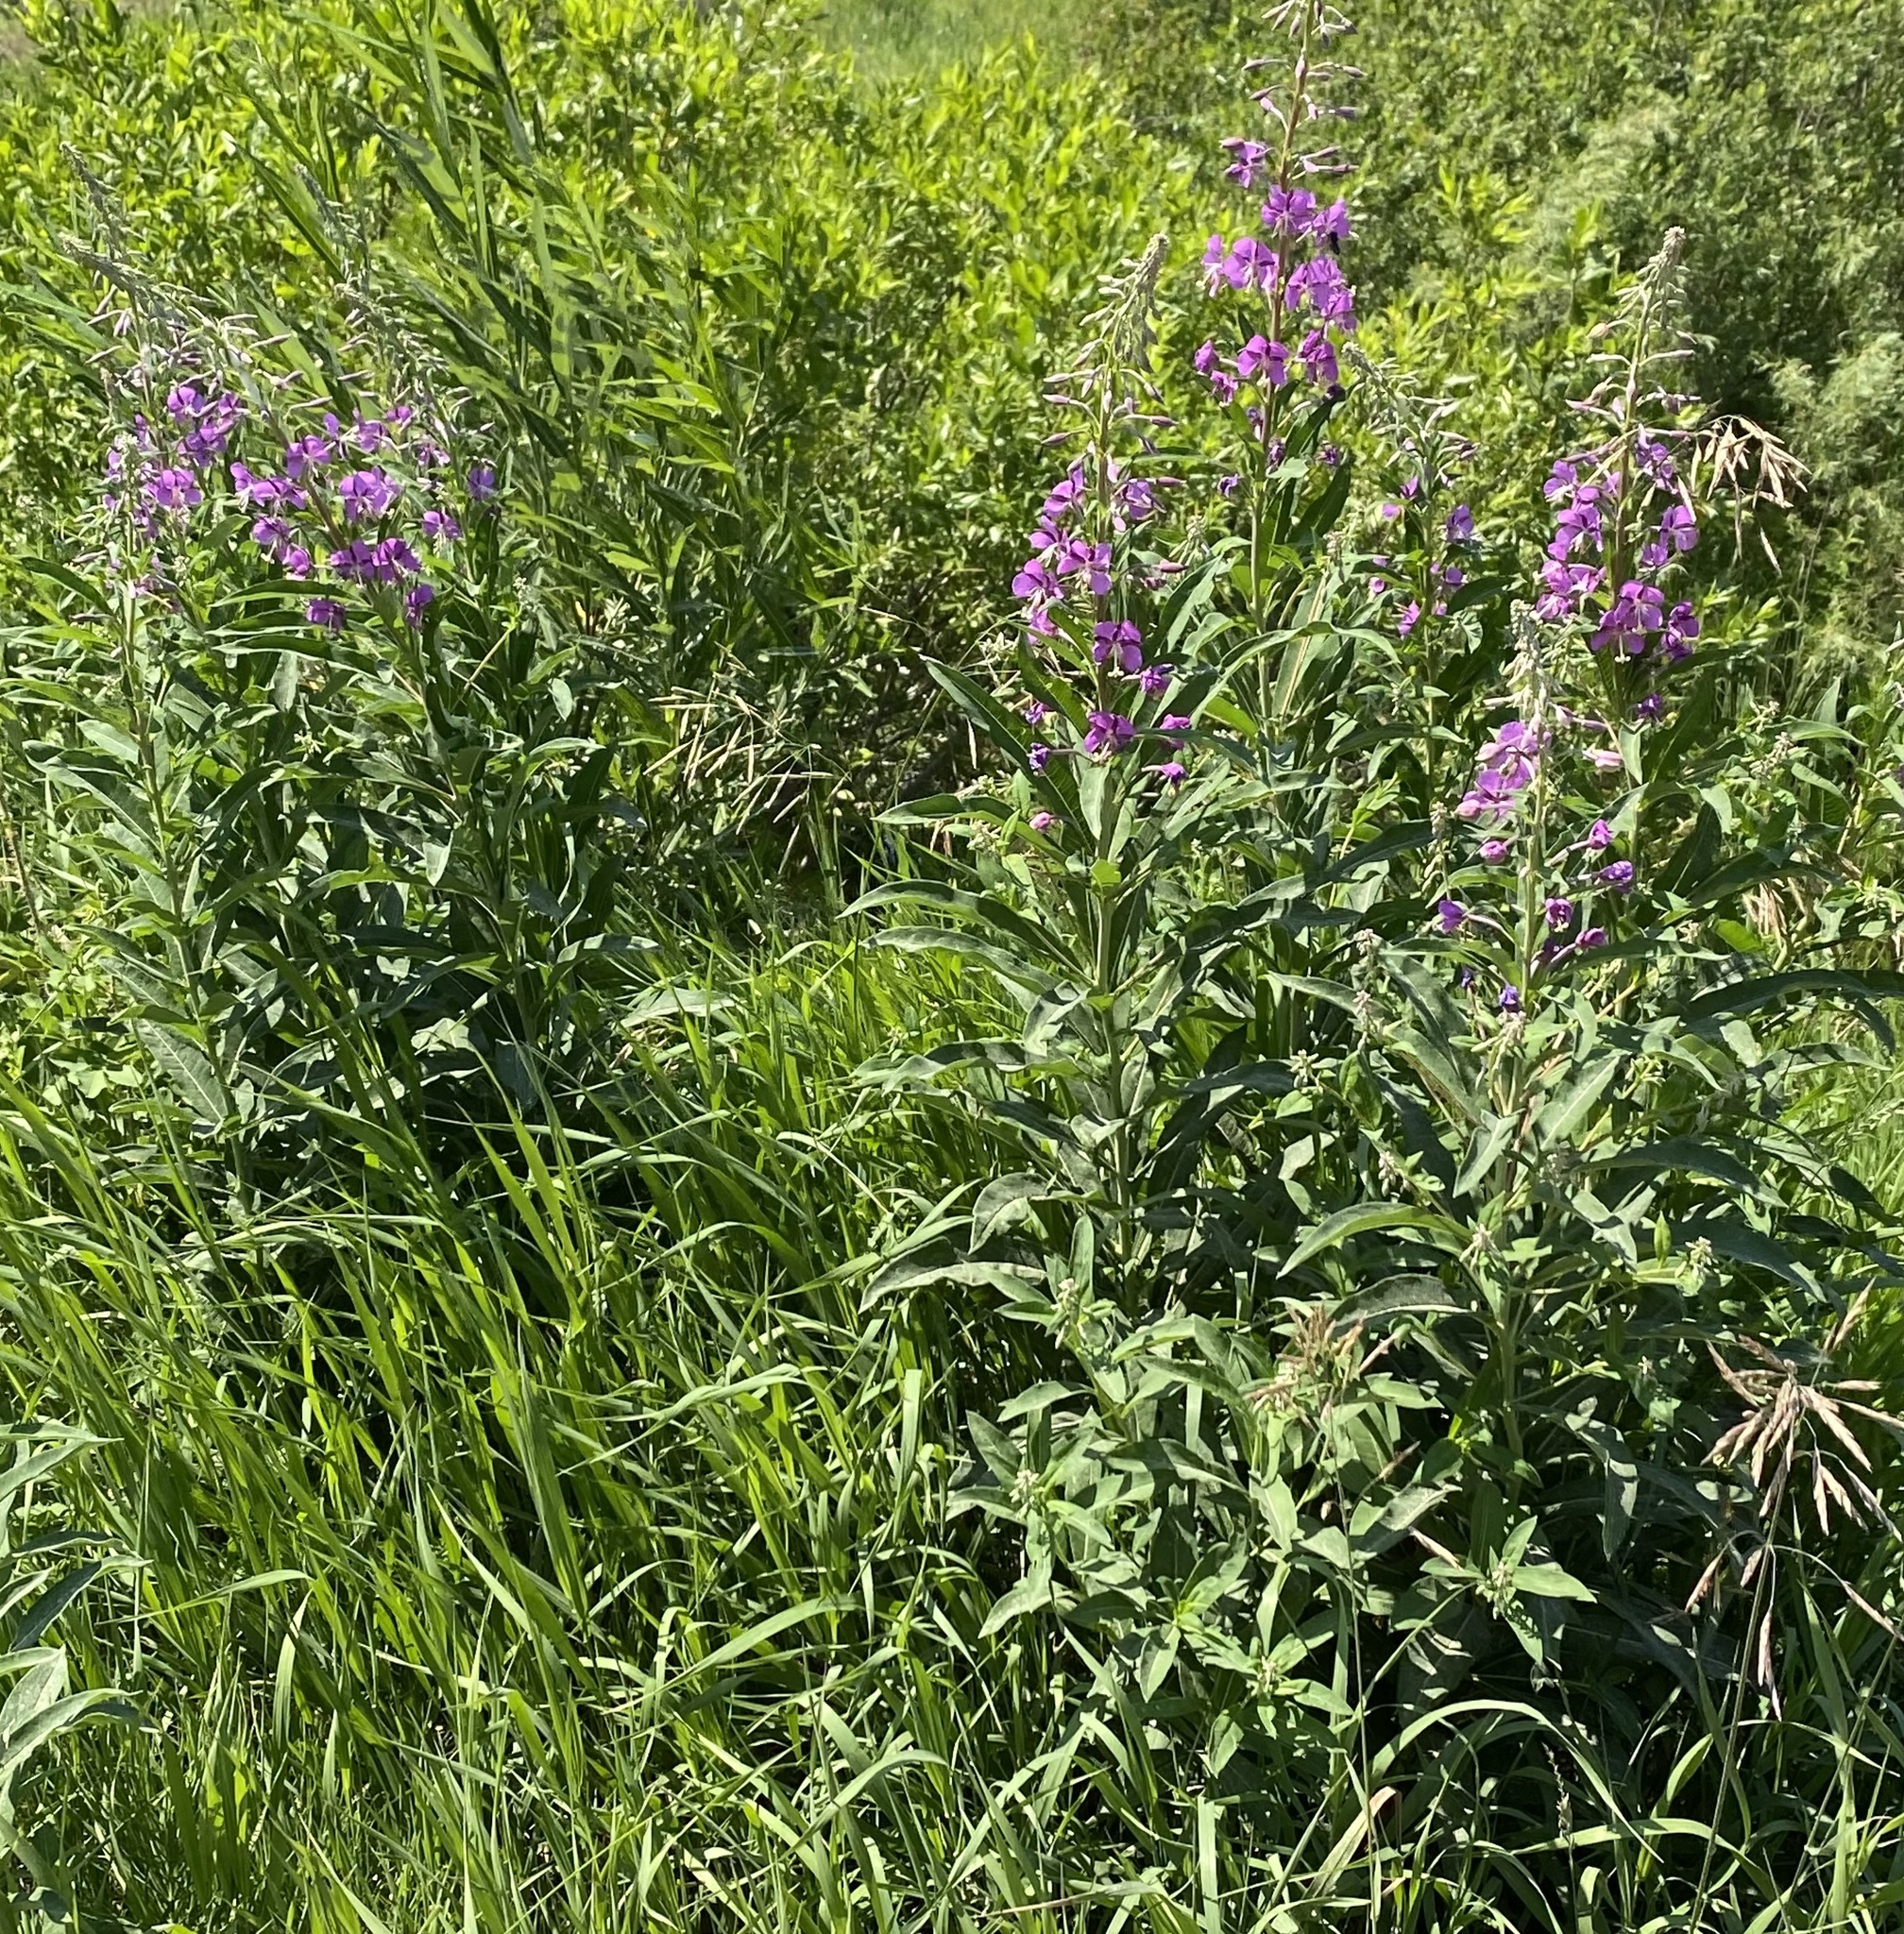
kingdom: Plantae
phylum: Tracheophyta
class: Magnoliopsida
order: Myrtales
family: Onagraceae
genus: Chamaenerion
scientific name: Chamaenerion angustifolium
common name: Fireweed
